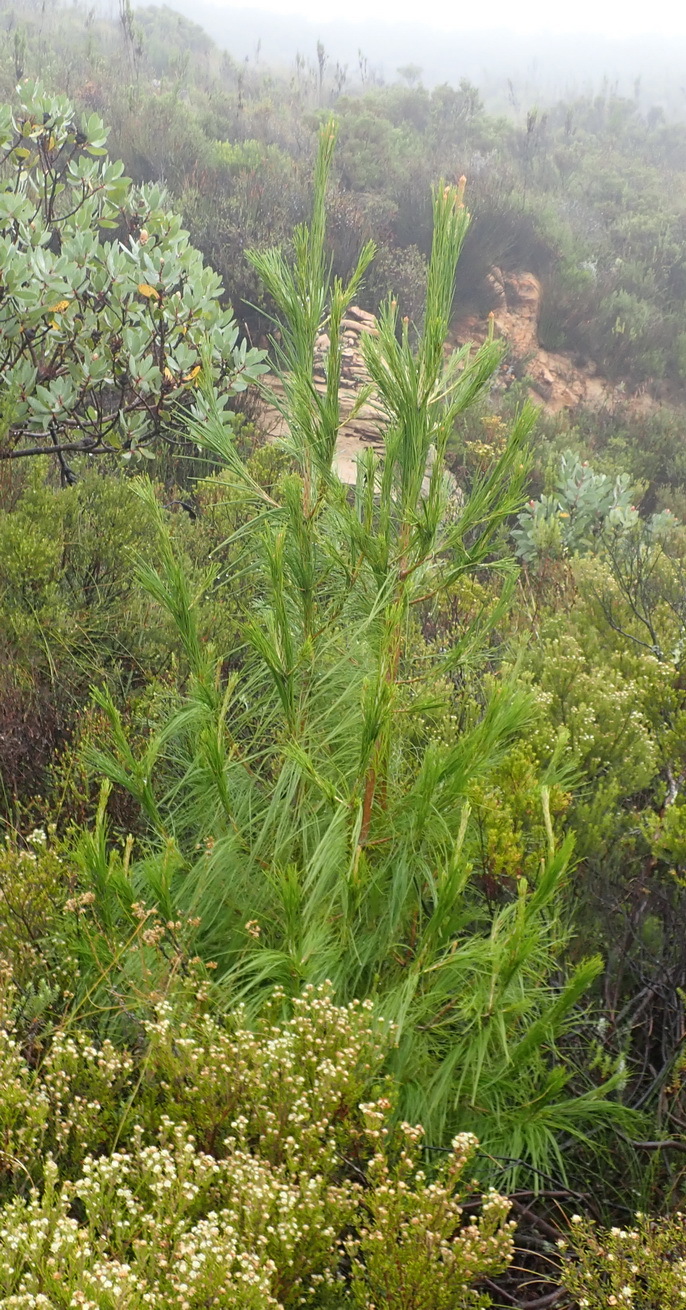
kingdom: Plantae
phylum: Tracheophyta
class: Pinopsida
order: Pinales
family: Pinaceae
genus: Pinus
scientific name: Pinus canariensis
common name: Canary islands pine
